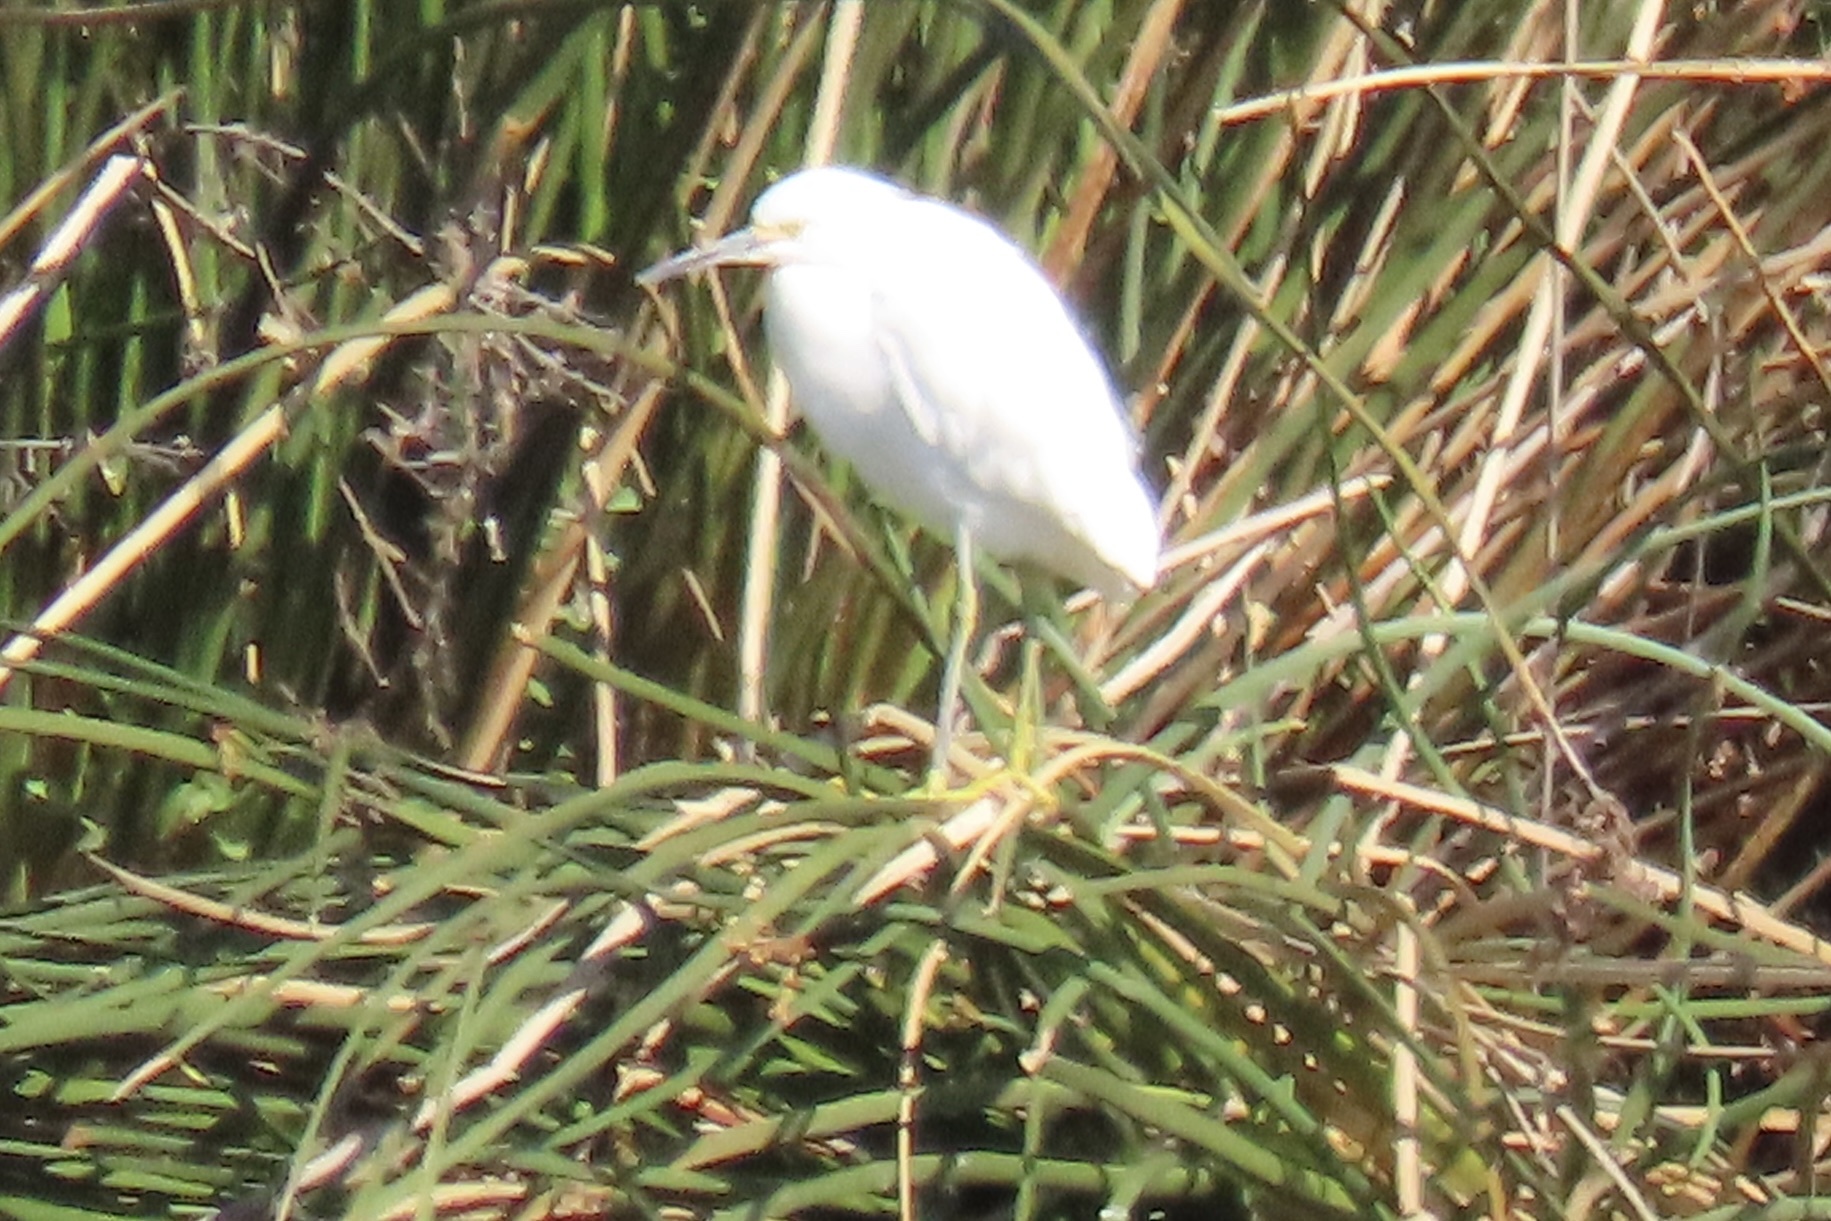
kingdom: Animalia
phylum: Chordata
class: Aves
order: Pelecaniformes
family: Ardeidae
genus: Egretta
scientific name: Egretta thula
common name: Snowy egret
